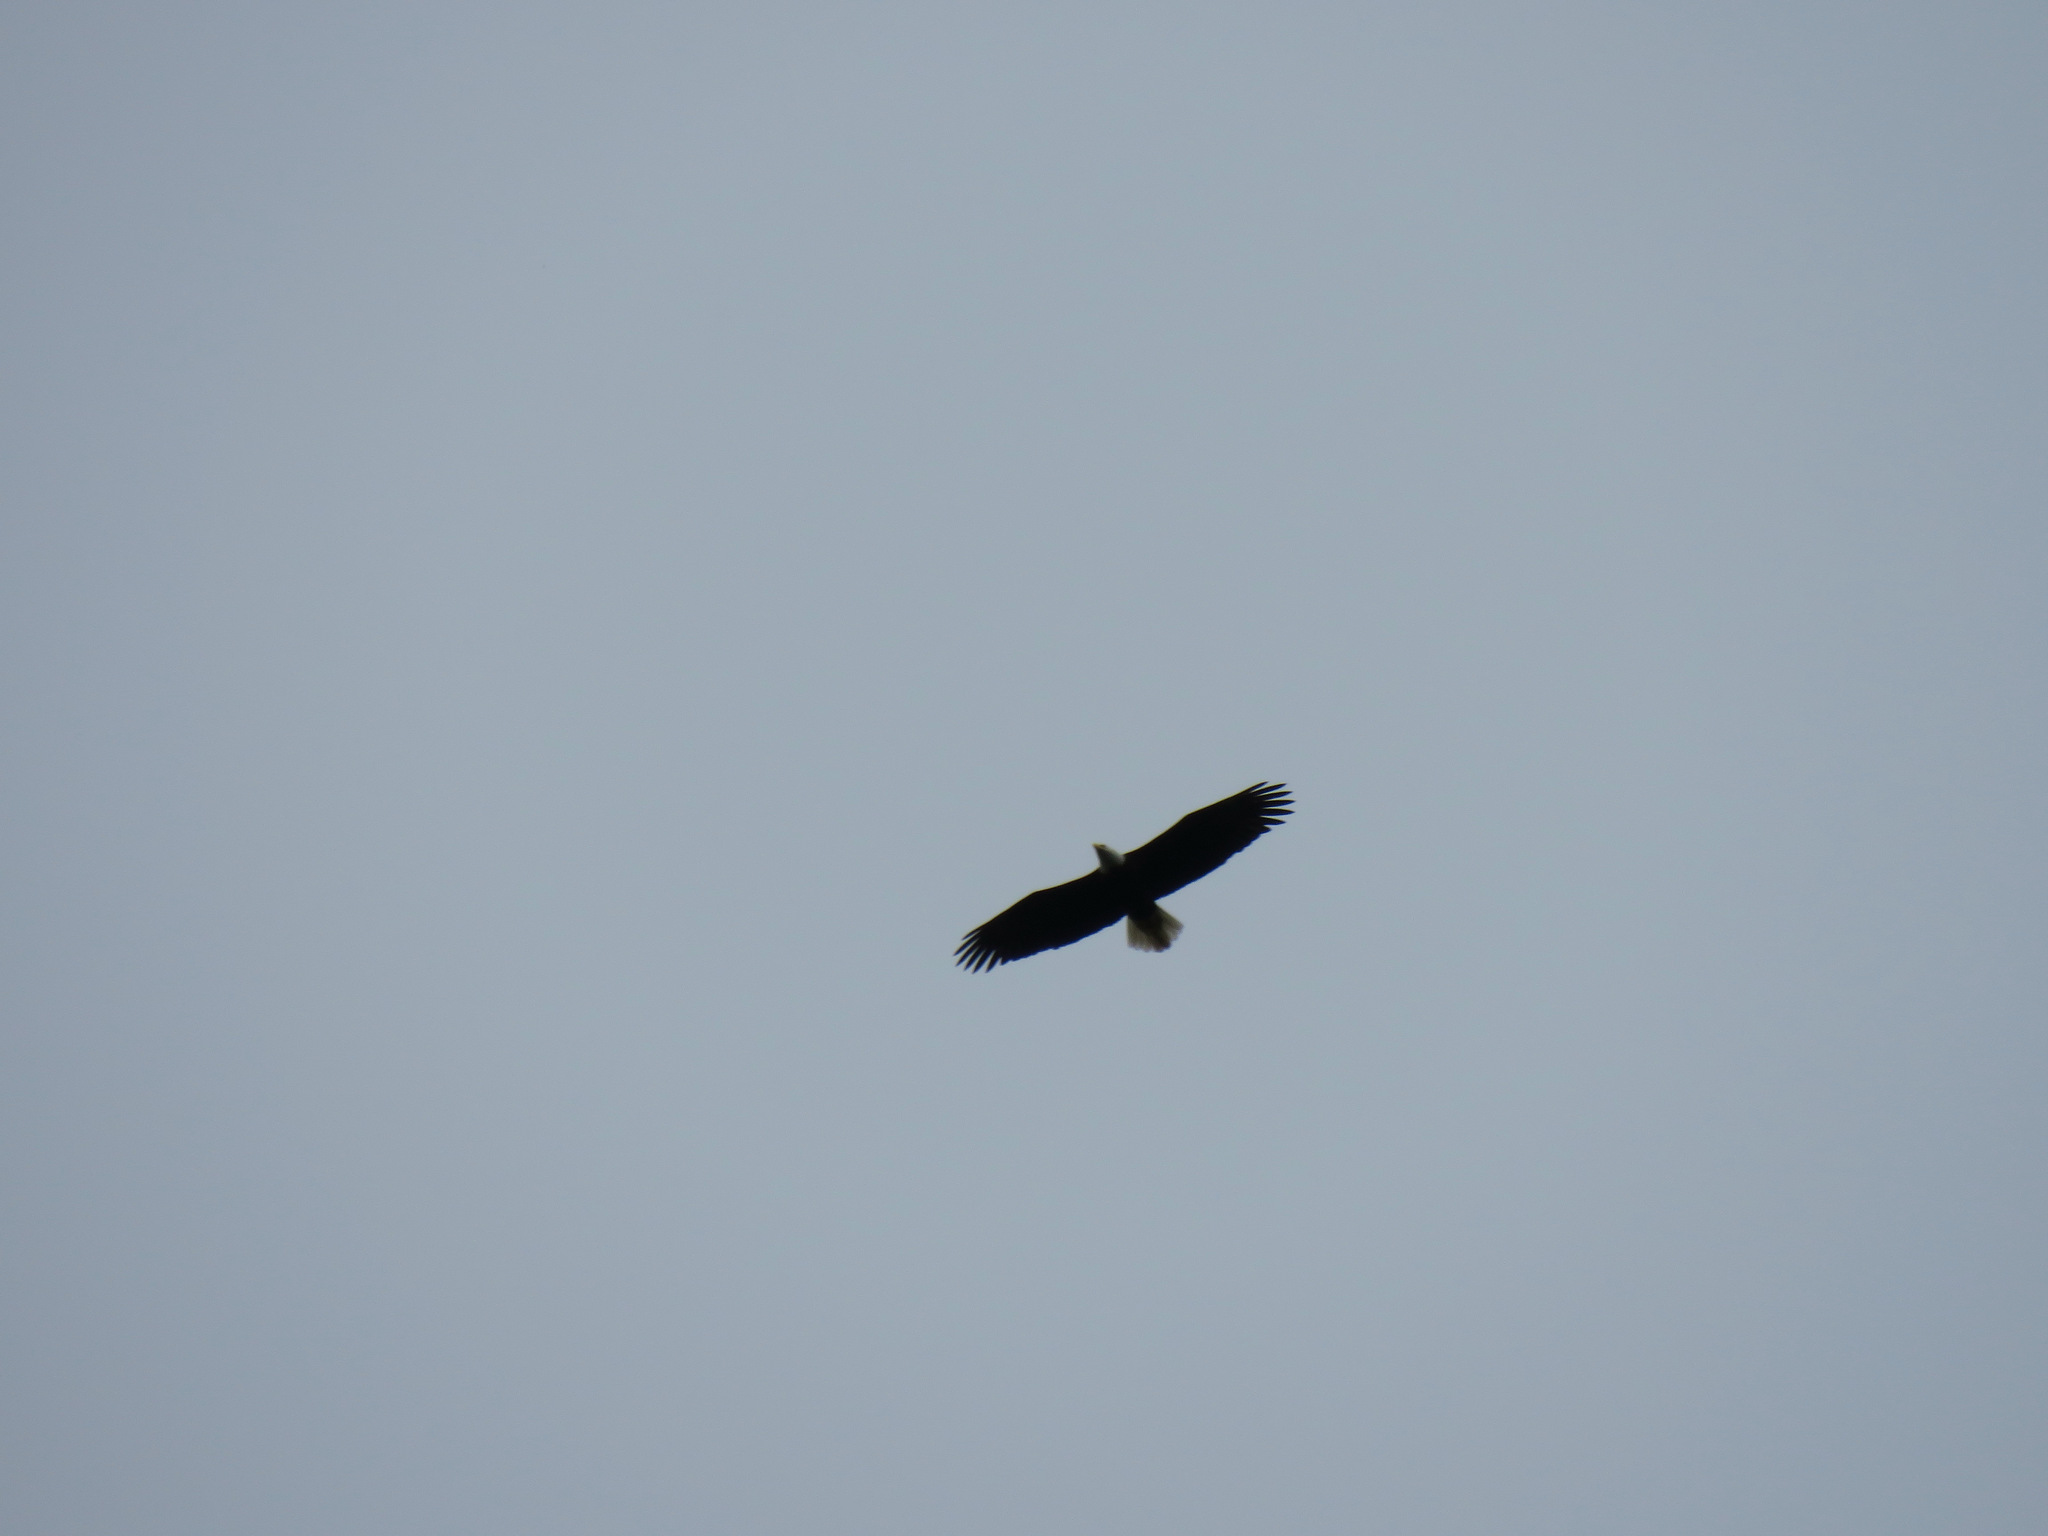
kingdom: Animalia
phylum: Chordata
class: Aves
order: Accipitriformes
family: Accipitridae
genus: Haliaeetus
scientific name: Haliaeetus leucocephalus
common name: Bald eagle
